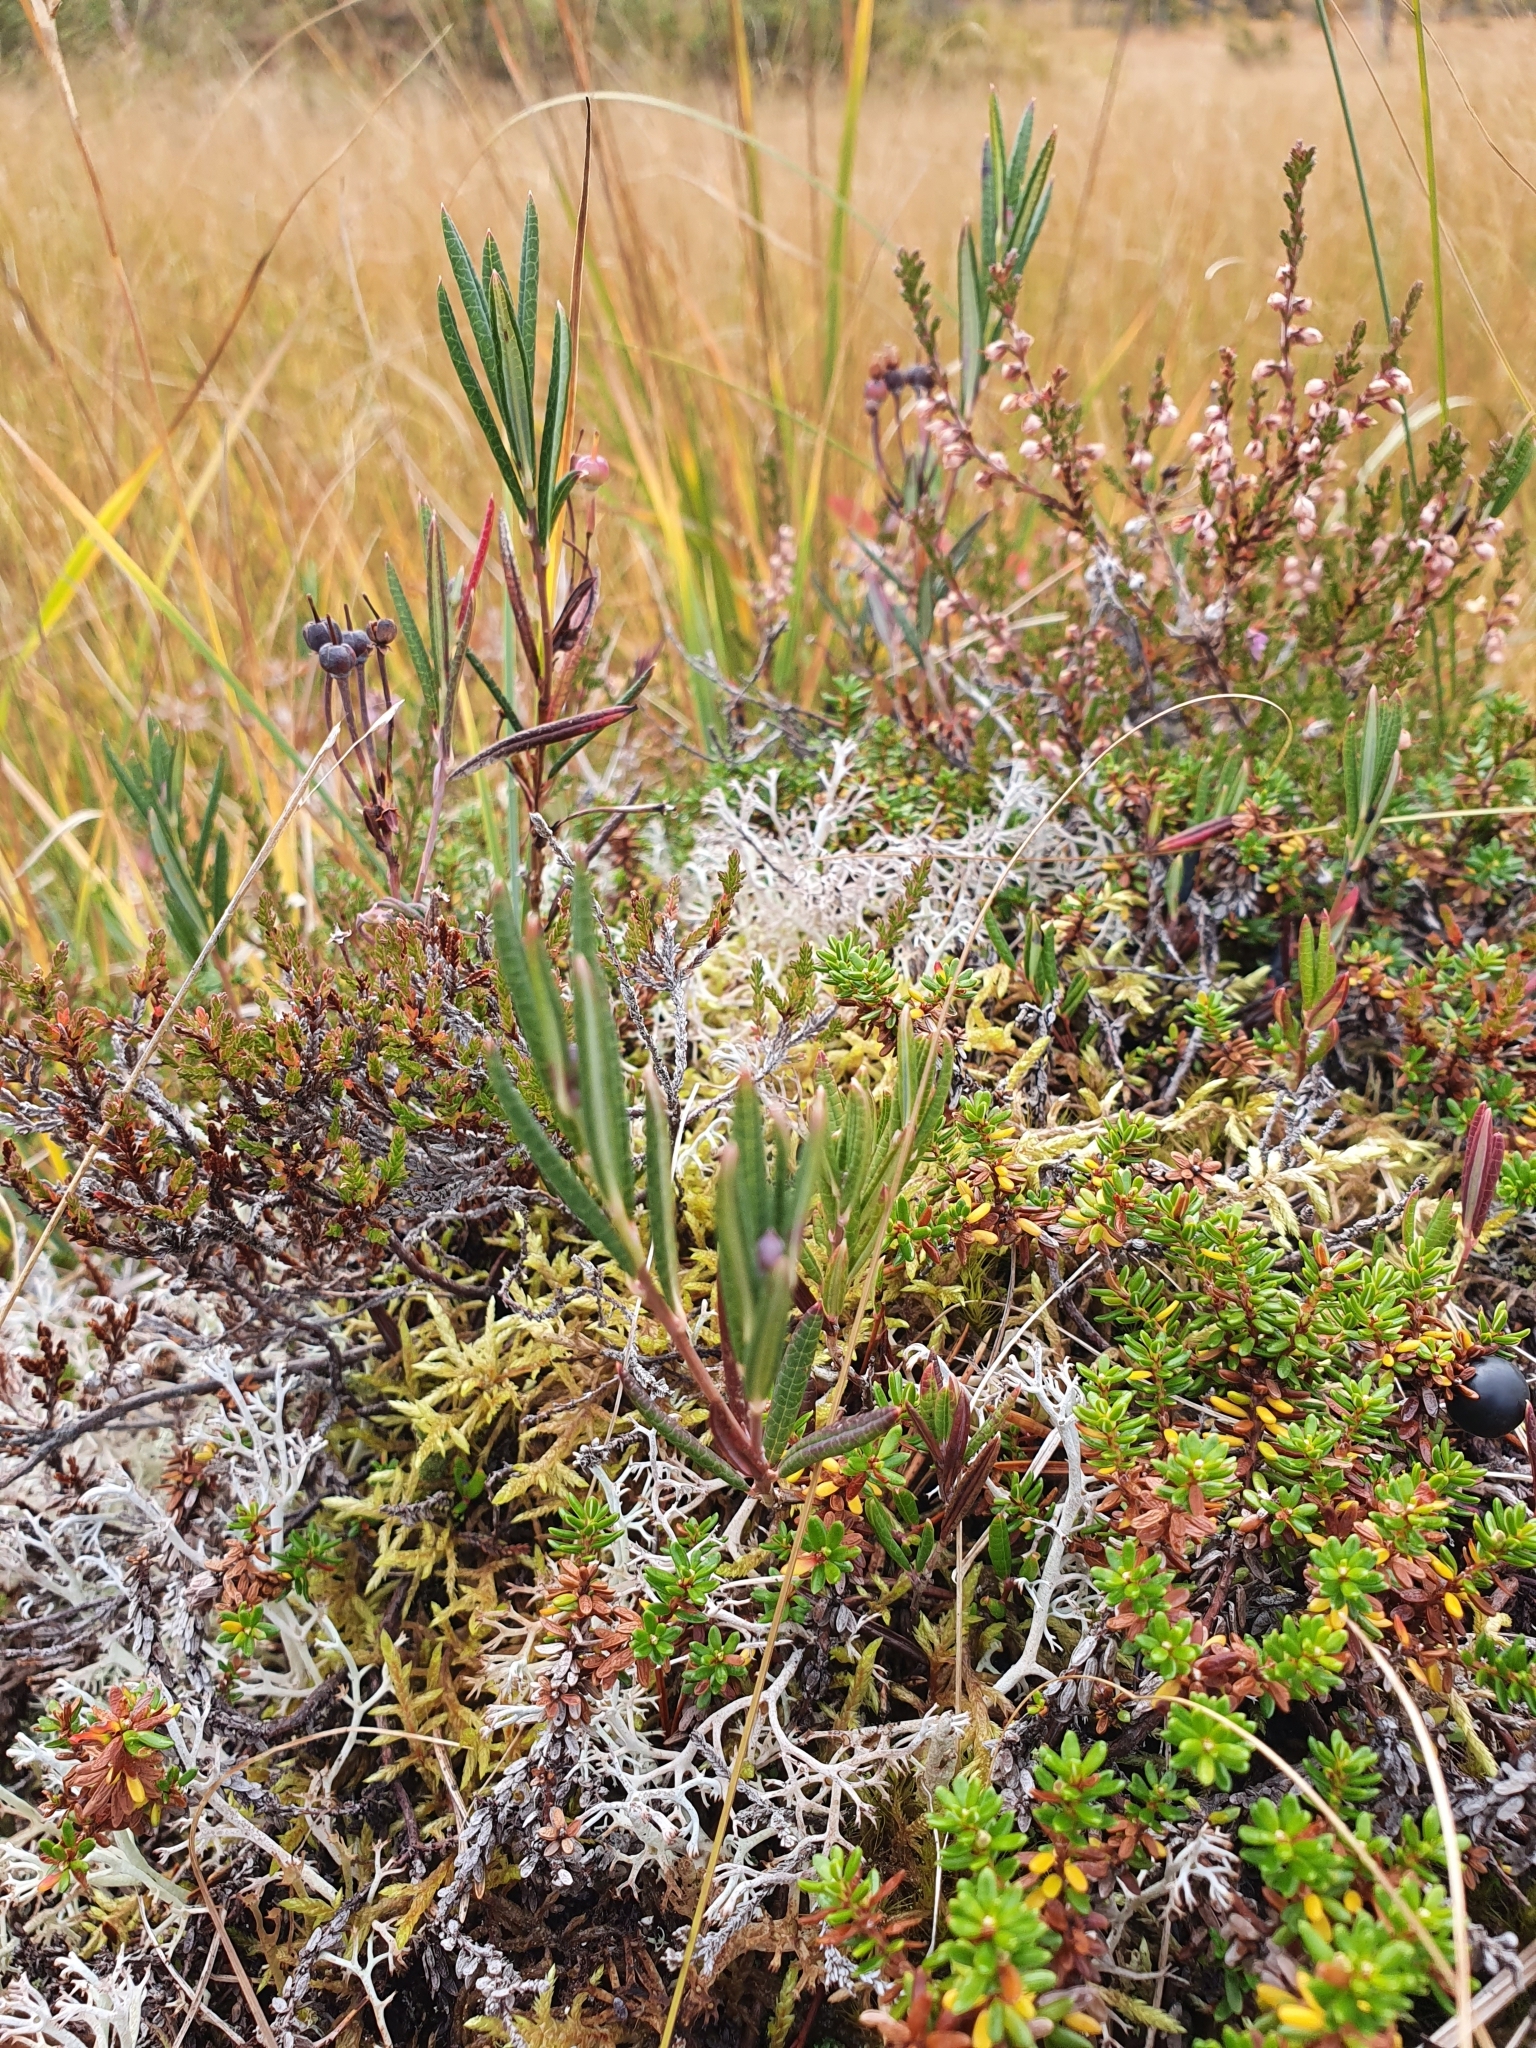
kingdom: Plantae
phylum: Tracheophyta
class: Magnoliopsida
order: Ericales
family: Ericaceae
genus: Andromeda
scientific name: Andromeda polifolia
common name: Bog-rosemary
